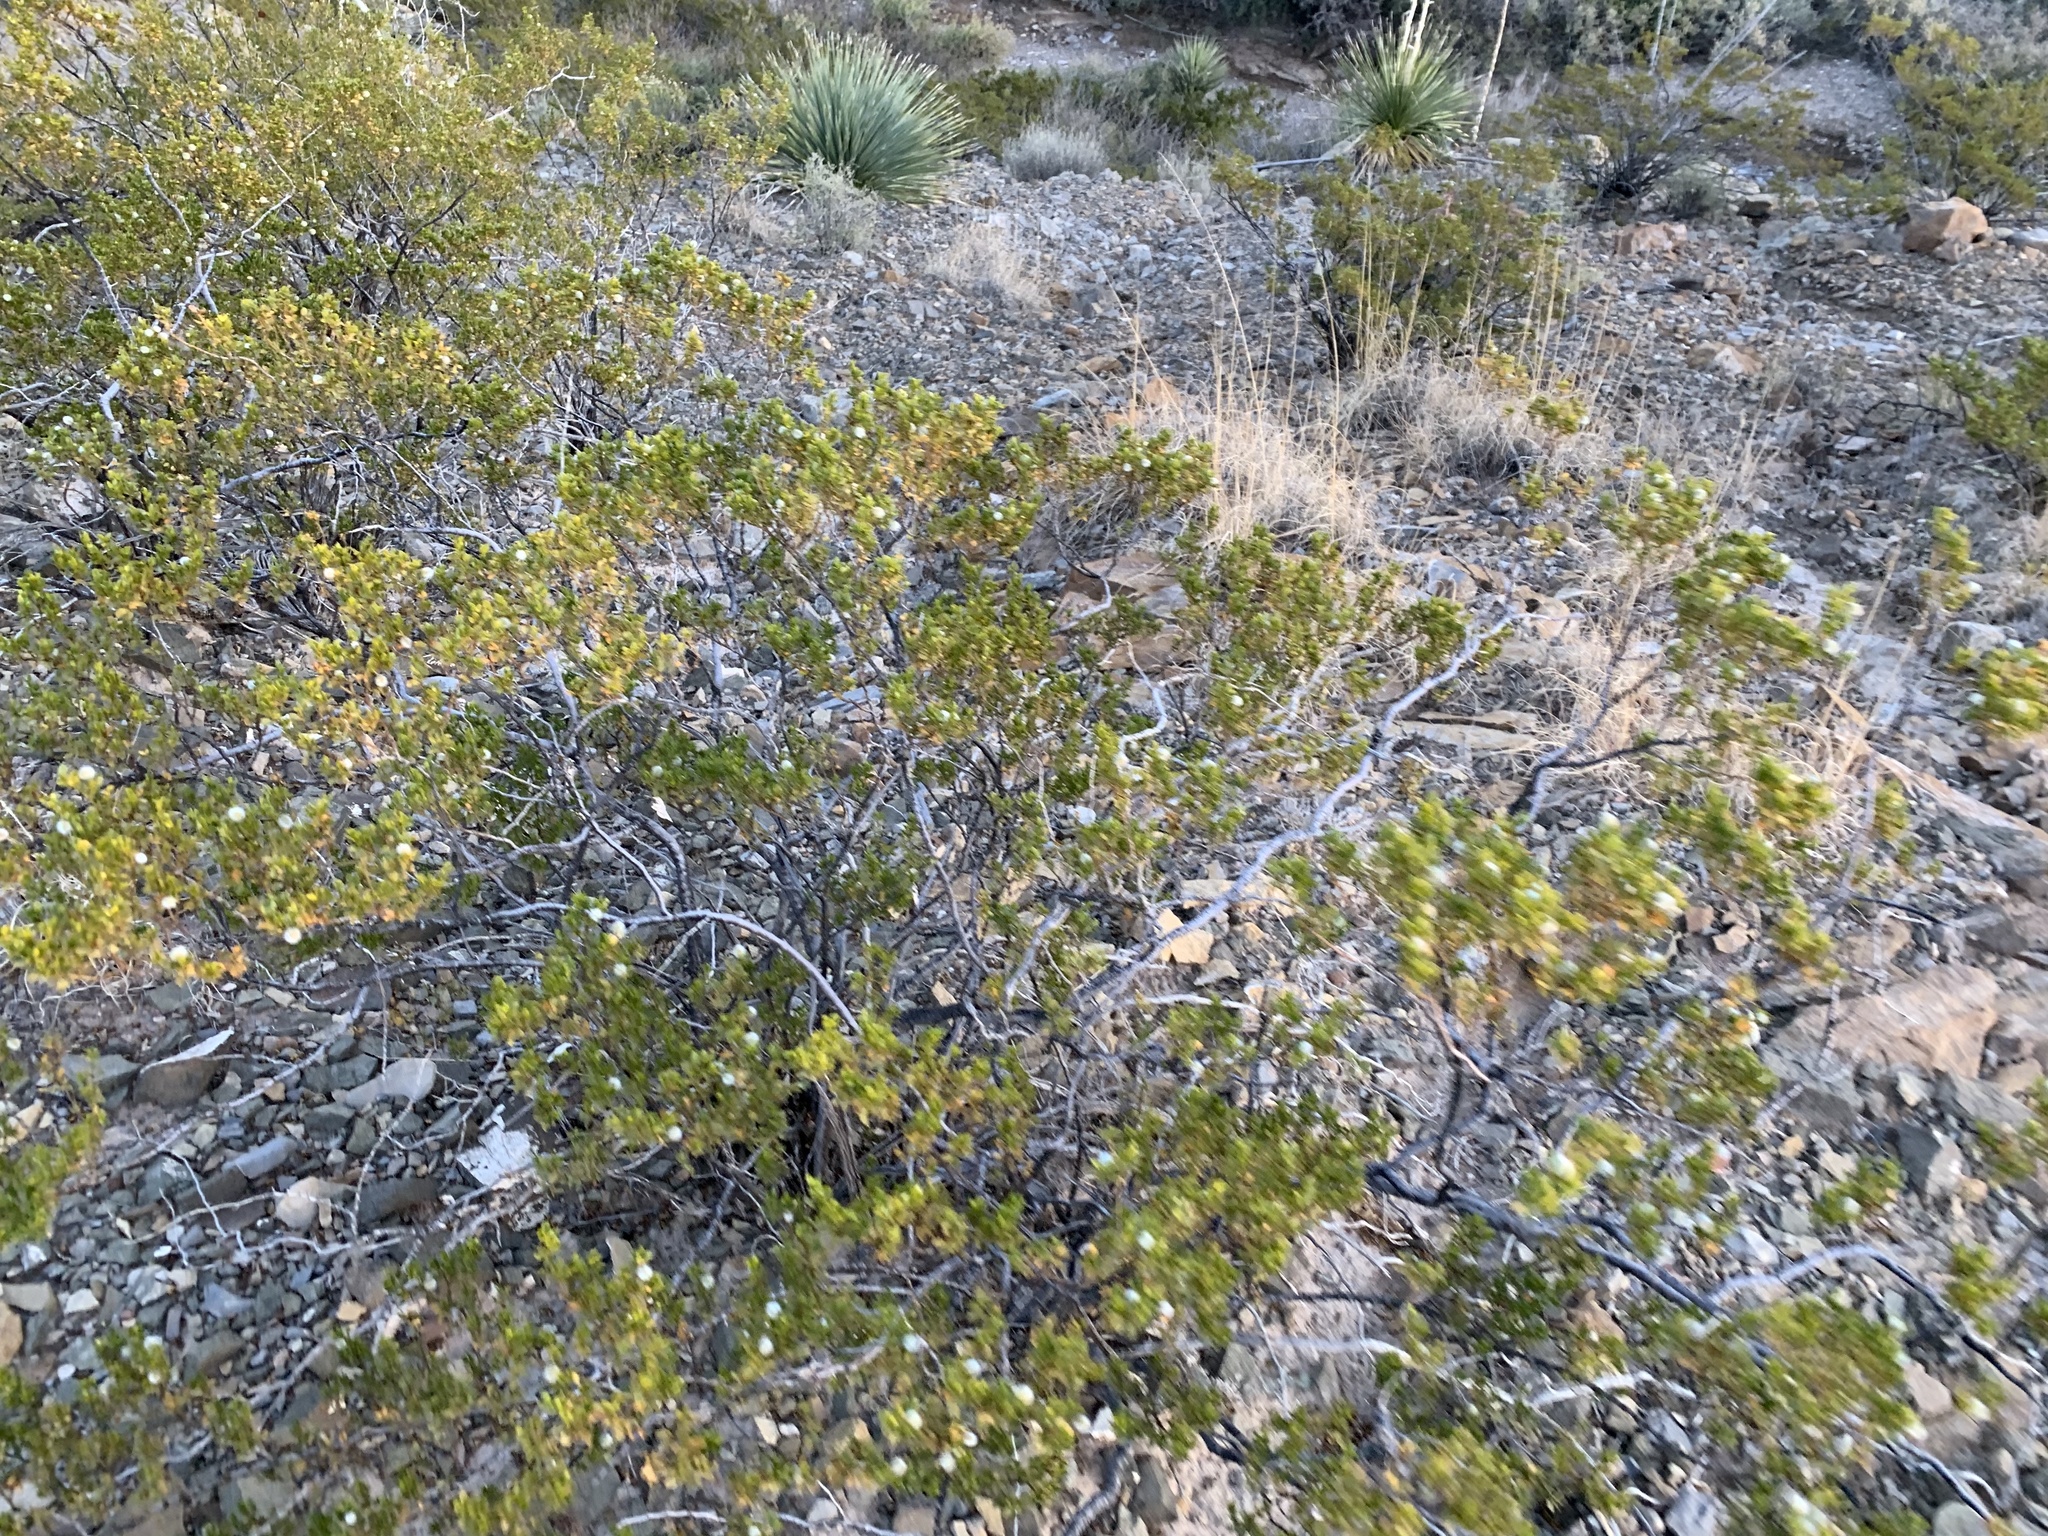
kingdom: Plantae
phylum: Tracheophyta
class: Magnoliopsida
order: Zygophyllales
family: Zygophyllaceae
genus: Larrea
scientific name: Larrea tridentata
